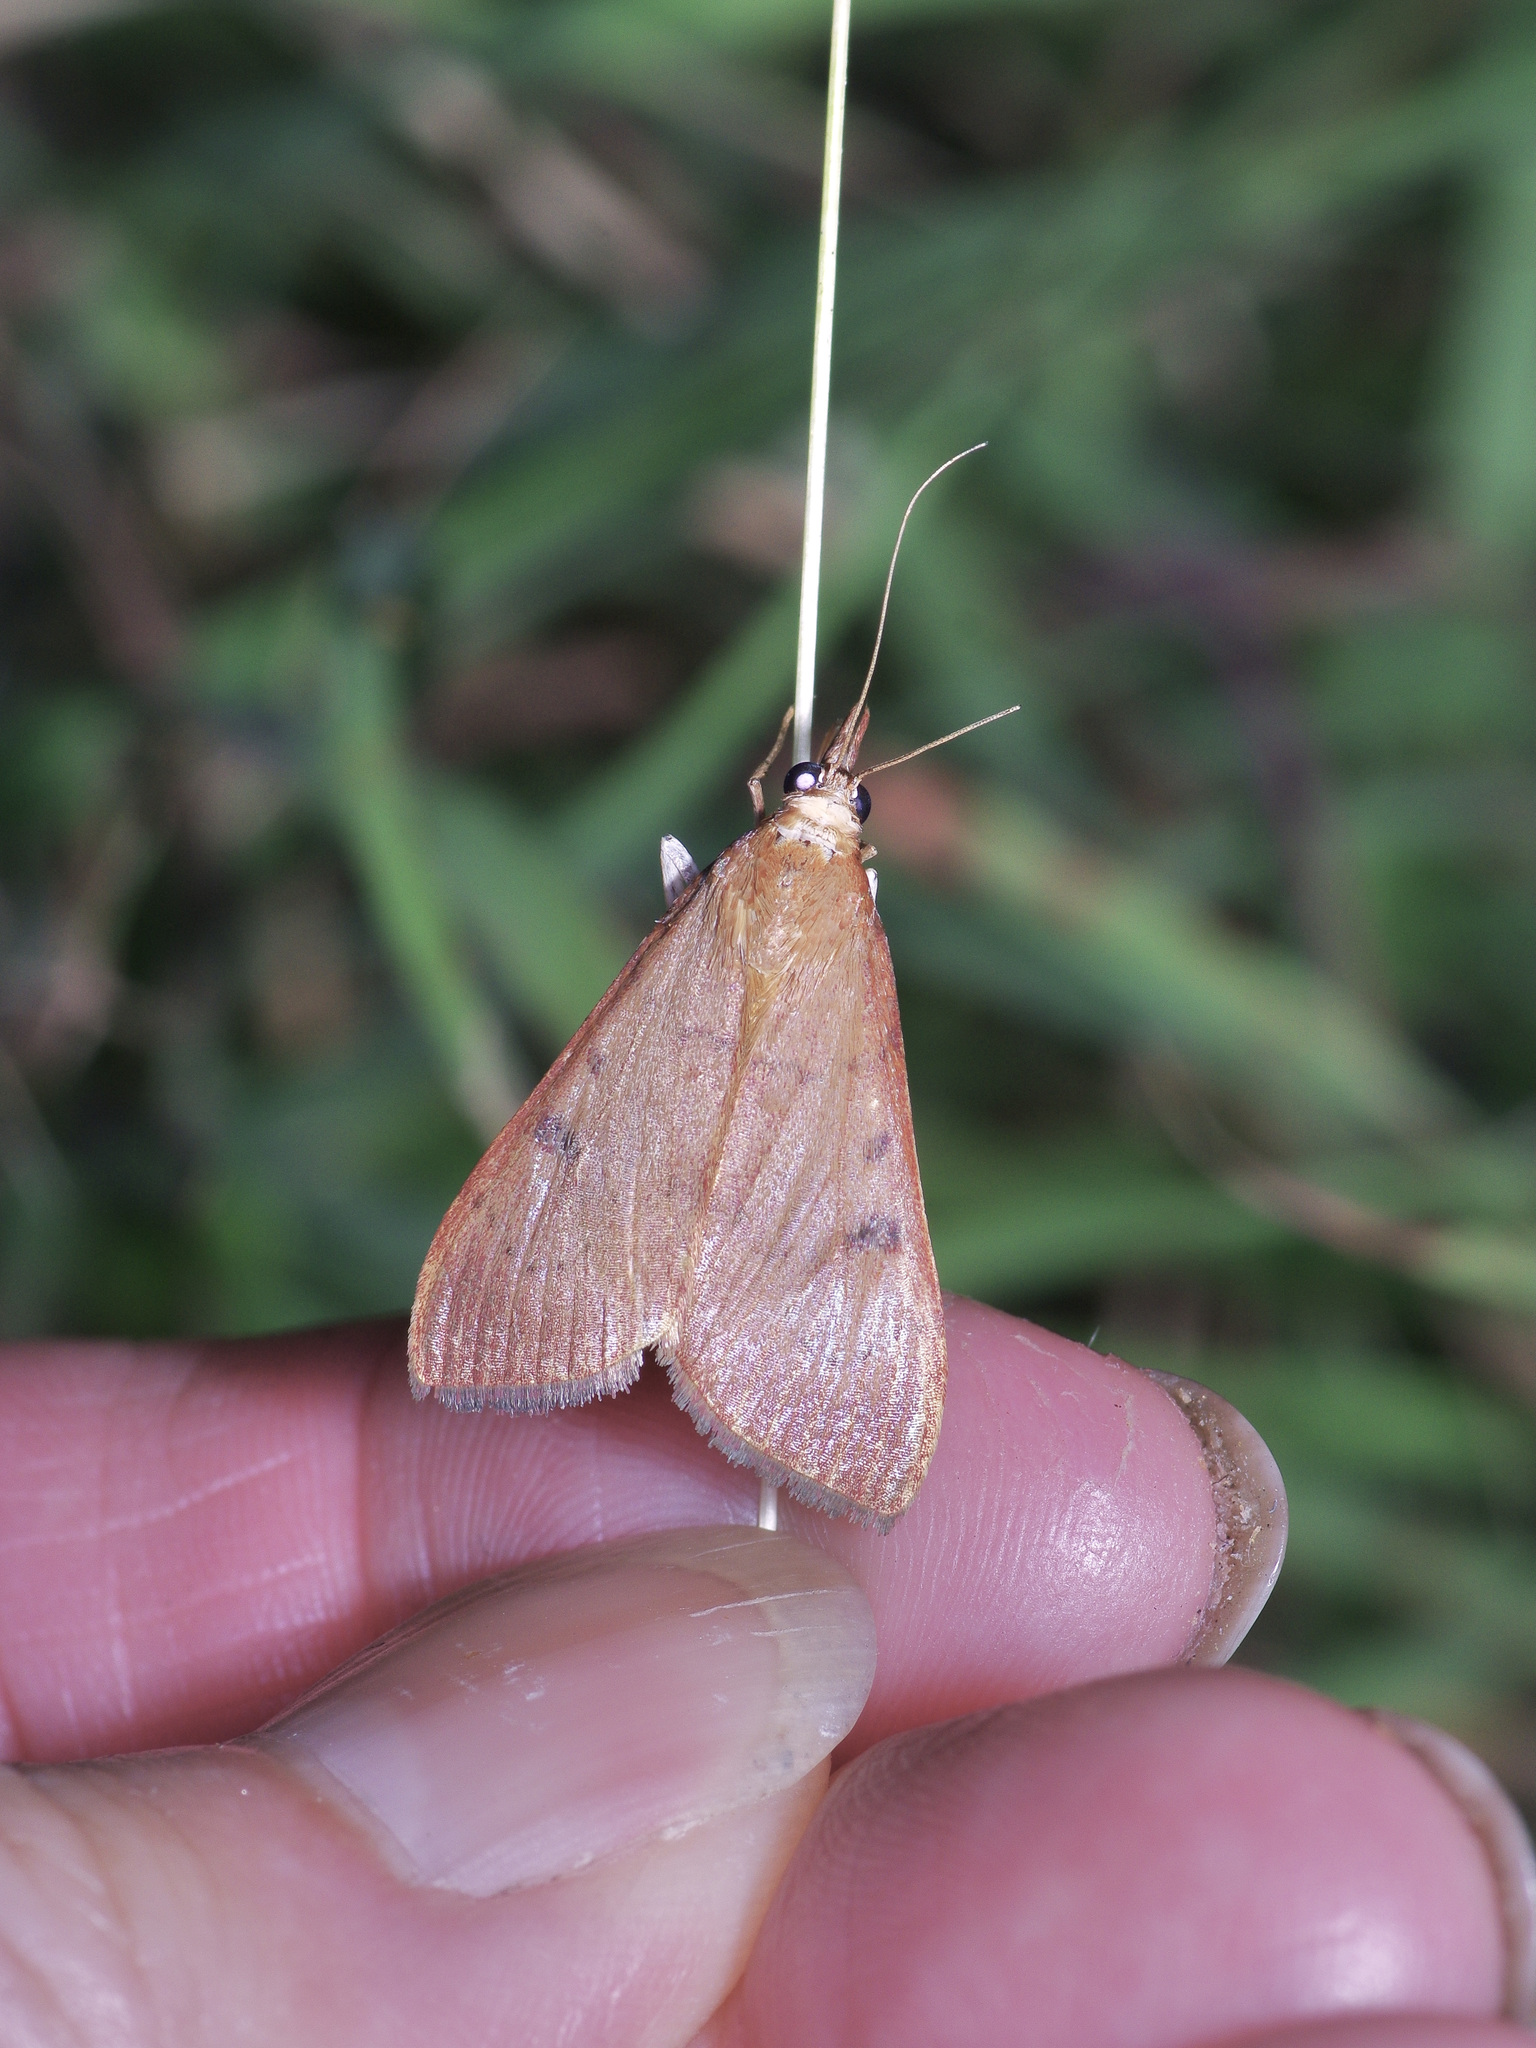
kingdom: Animalia
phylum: Arthropoda
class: Insecta
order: Lepidoptera
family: Crambidae
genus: Uresiphita
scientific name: Uresiphita reversalis
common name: Genista broom moth
